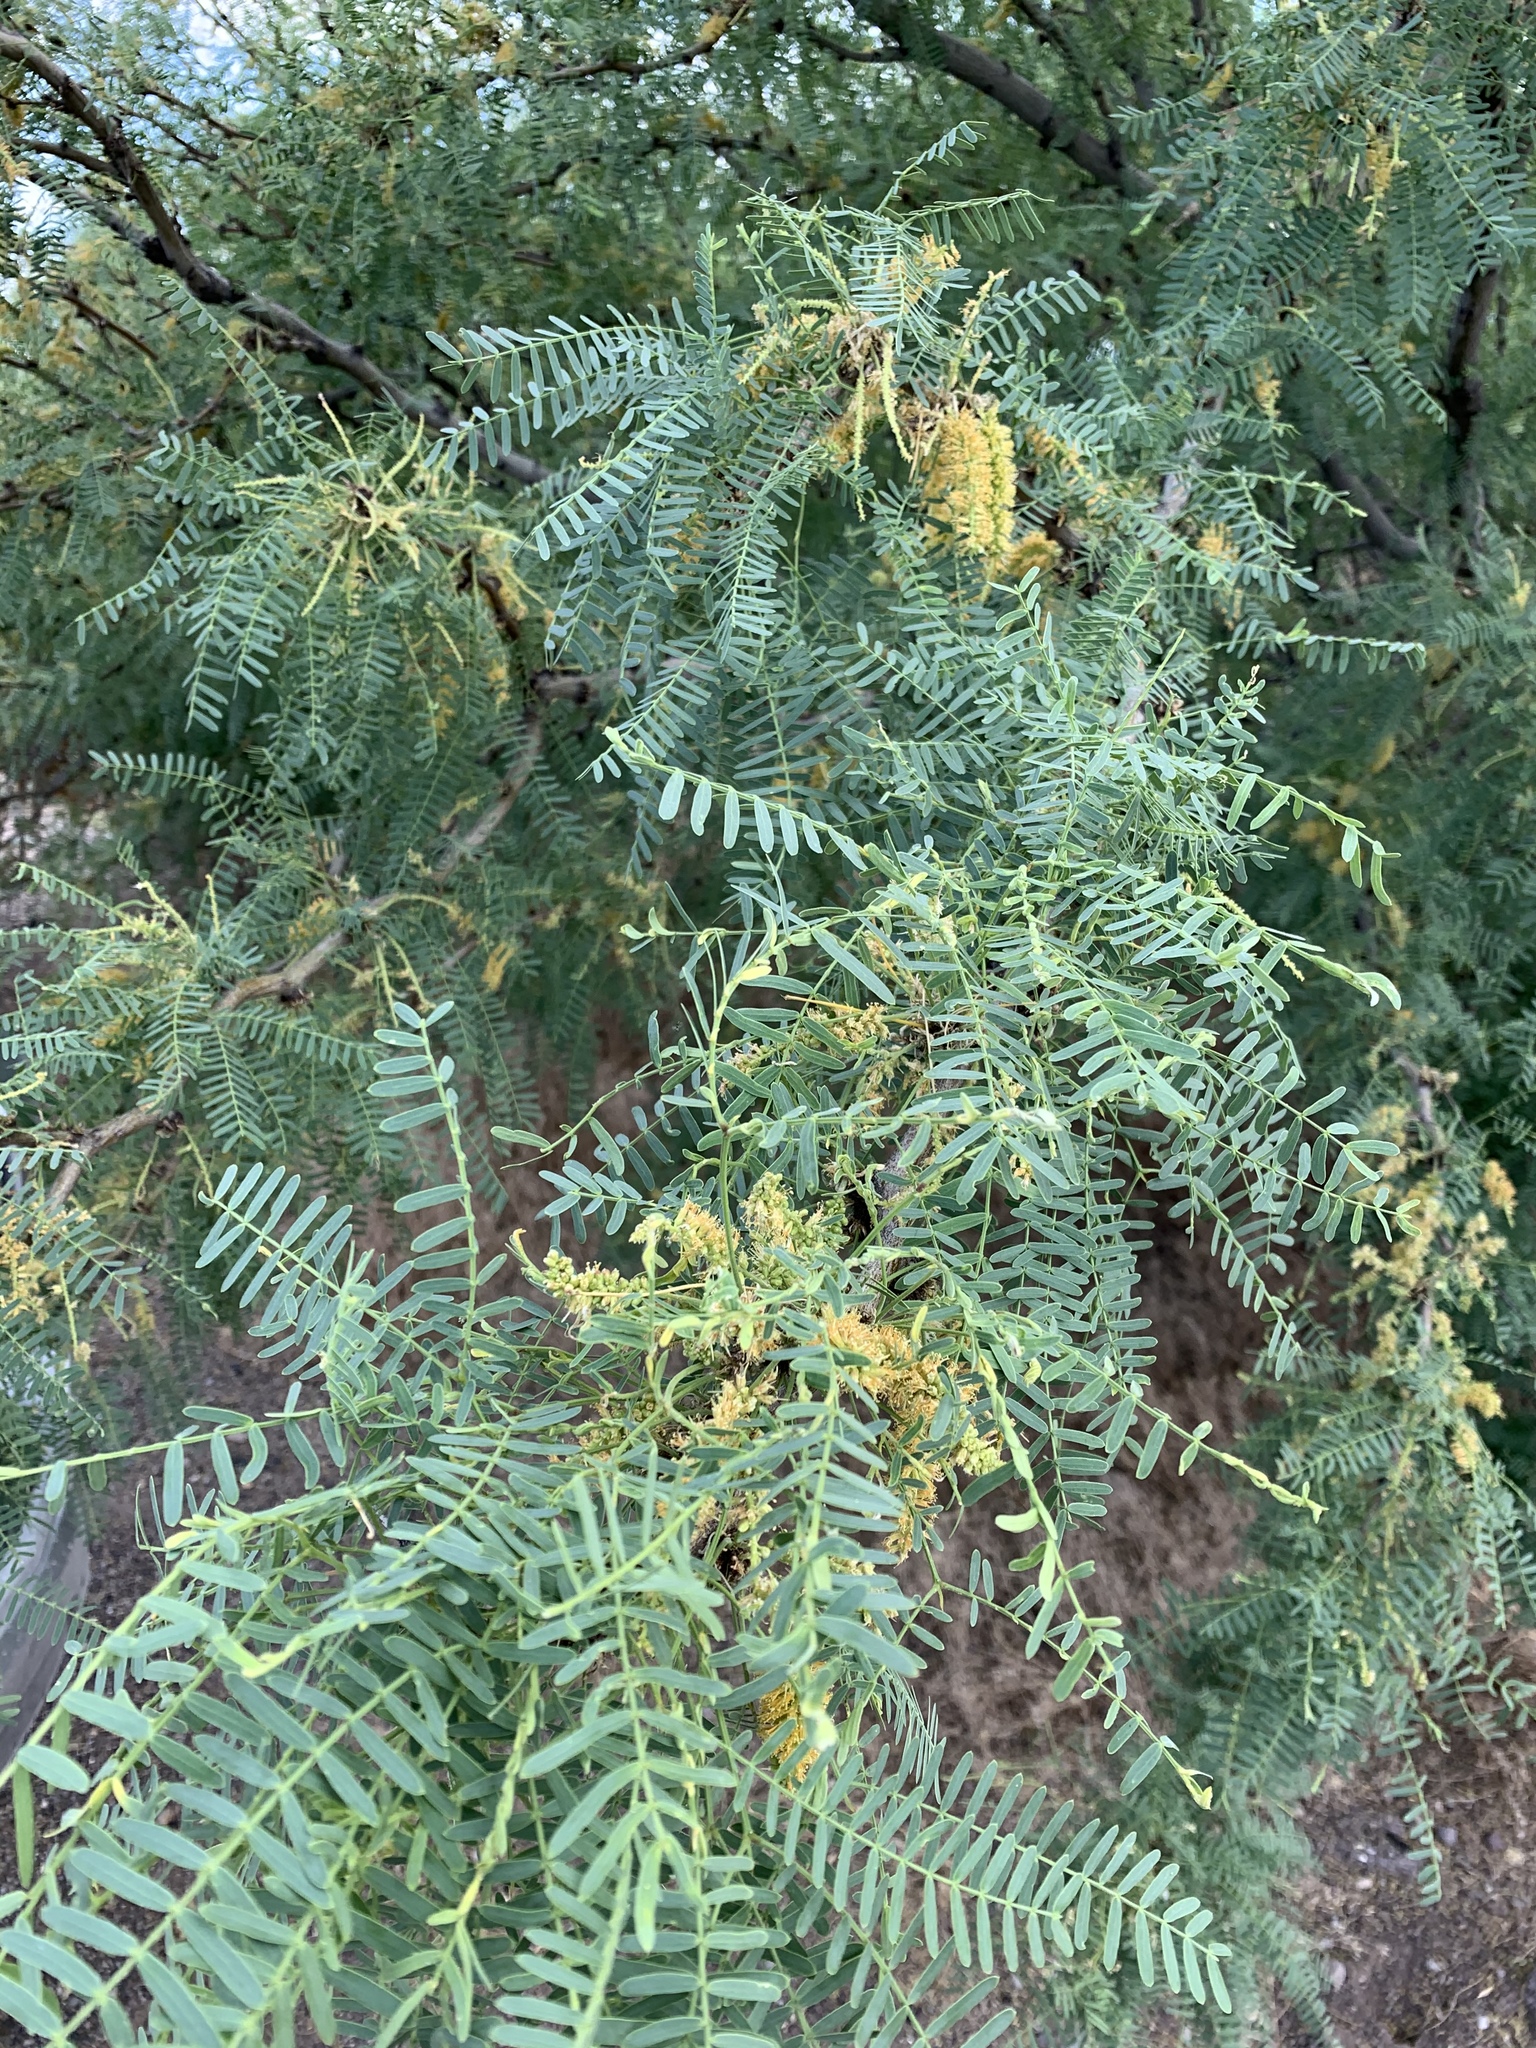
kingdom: Plantae
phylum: Tracheophyta
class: Magnoliopsida
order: Fabales
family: Fabaceae
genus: Prosopis
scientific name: Prosopis glandulosa
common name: Honey mesquite
